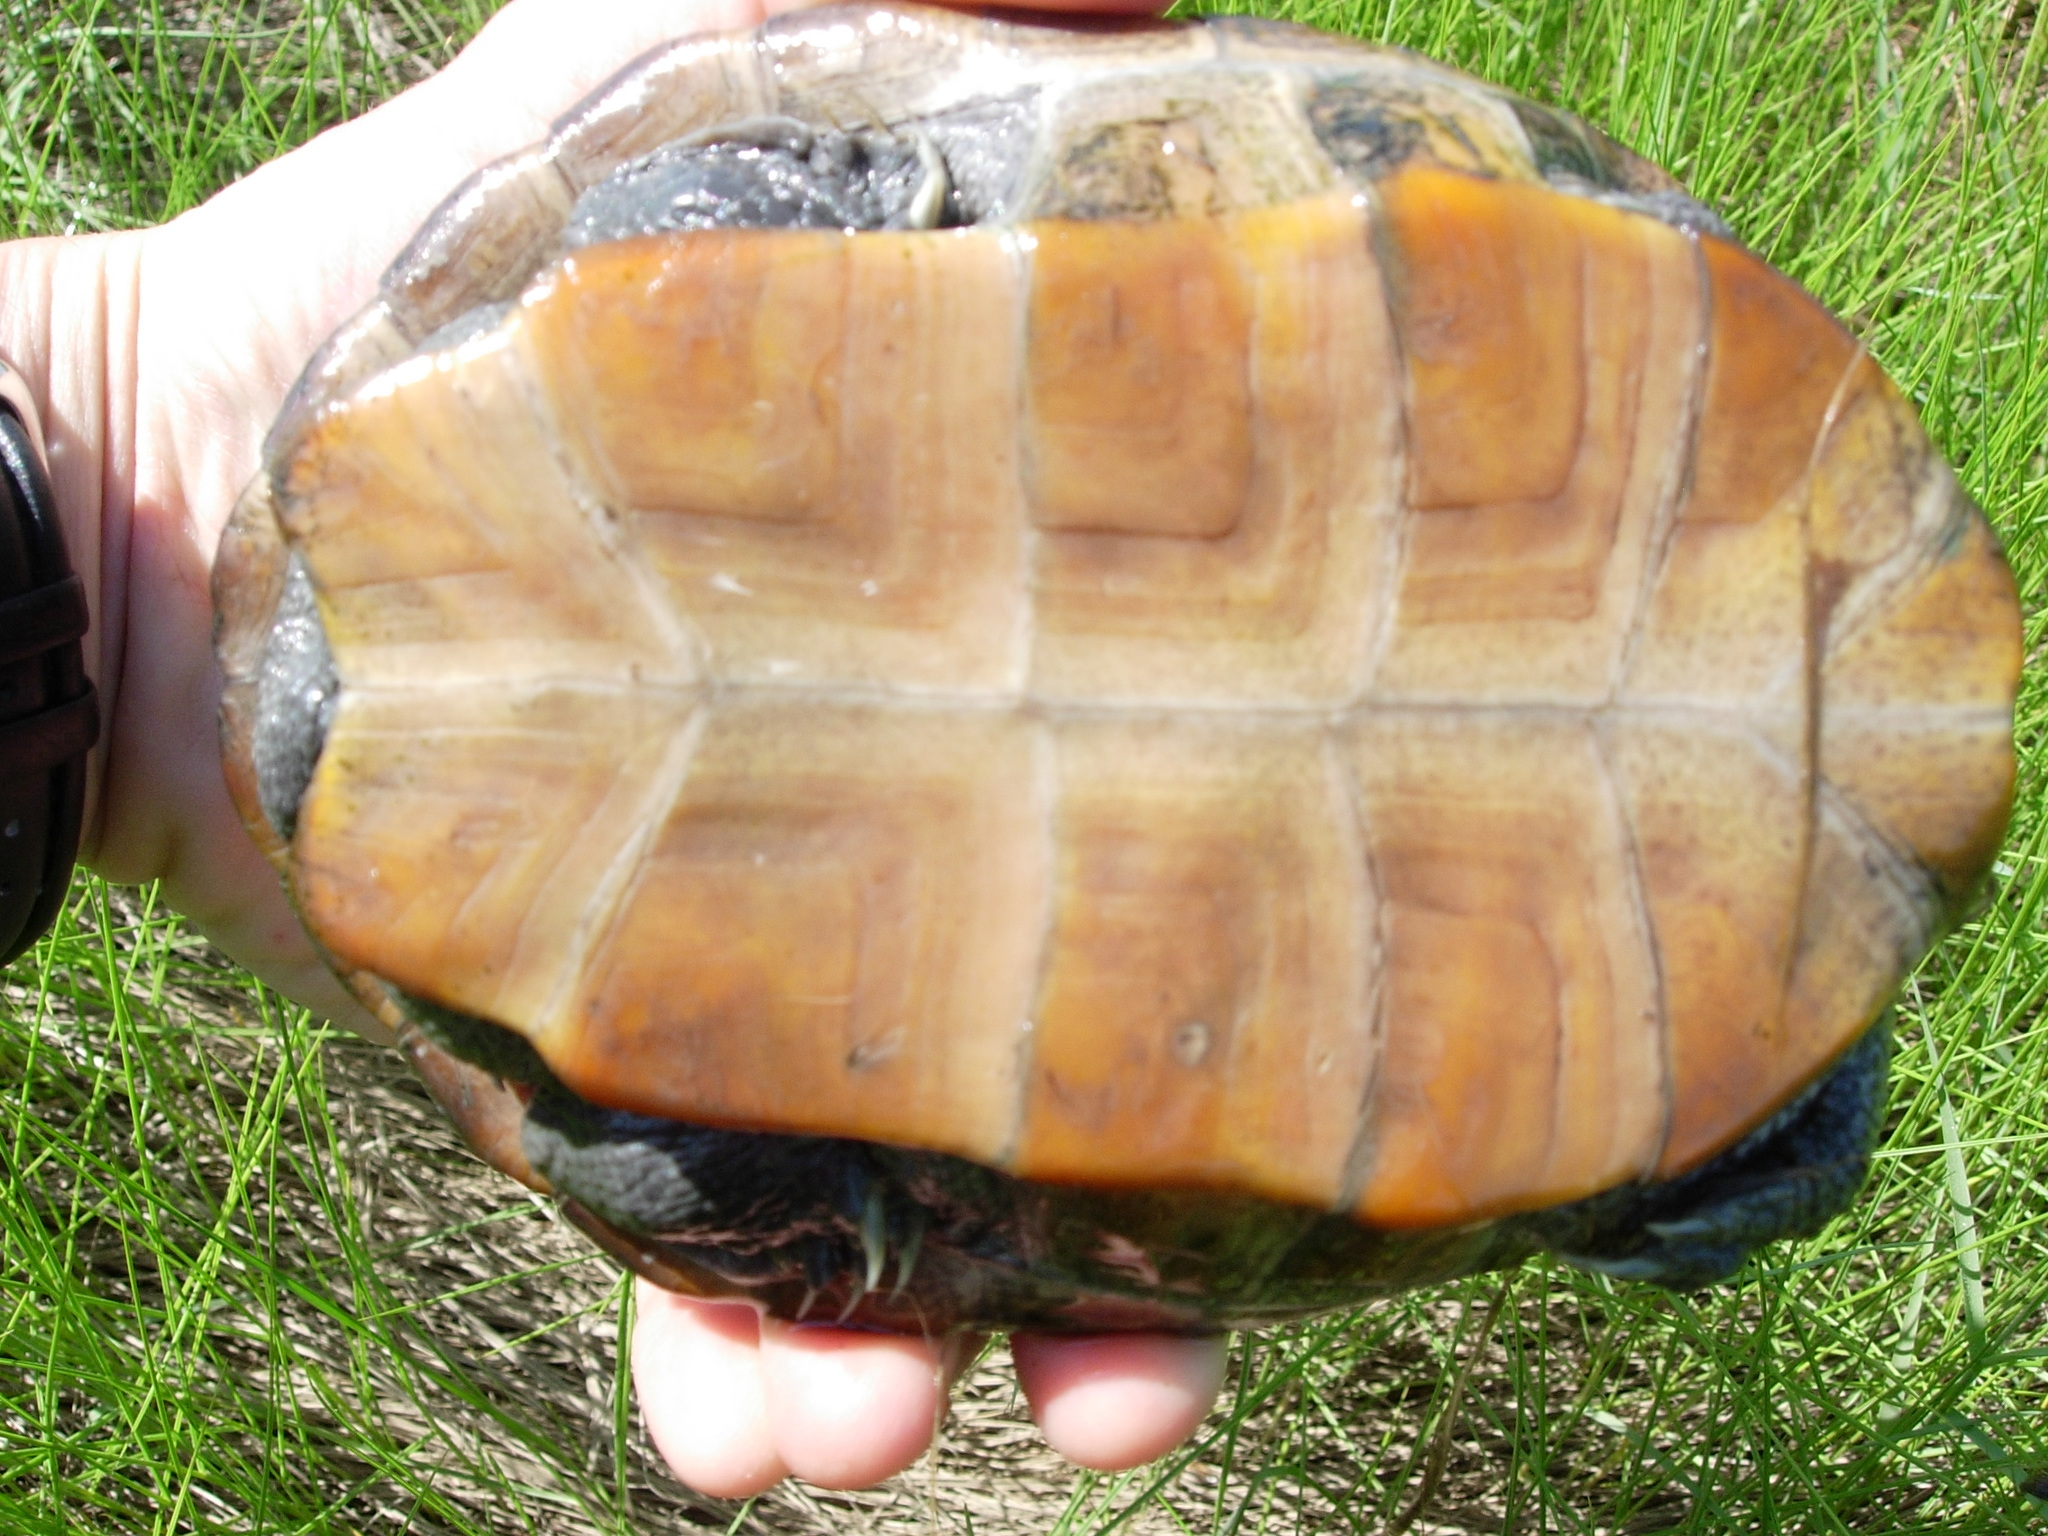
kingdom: Animalia
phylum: Chordata
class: Testudines
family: Emydidae
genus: Malaclemys
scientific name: Malaclemys terrapin
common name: Diamondback terrapin
